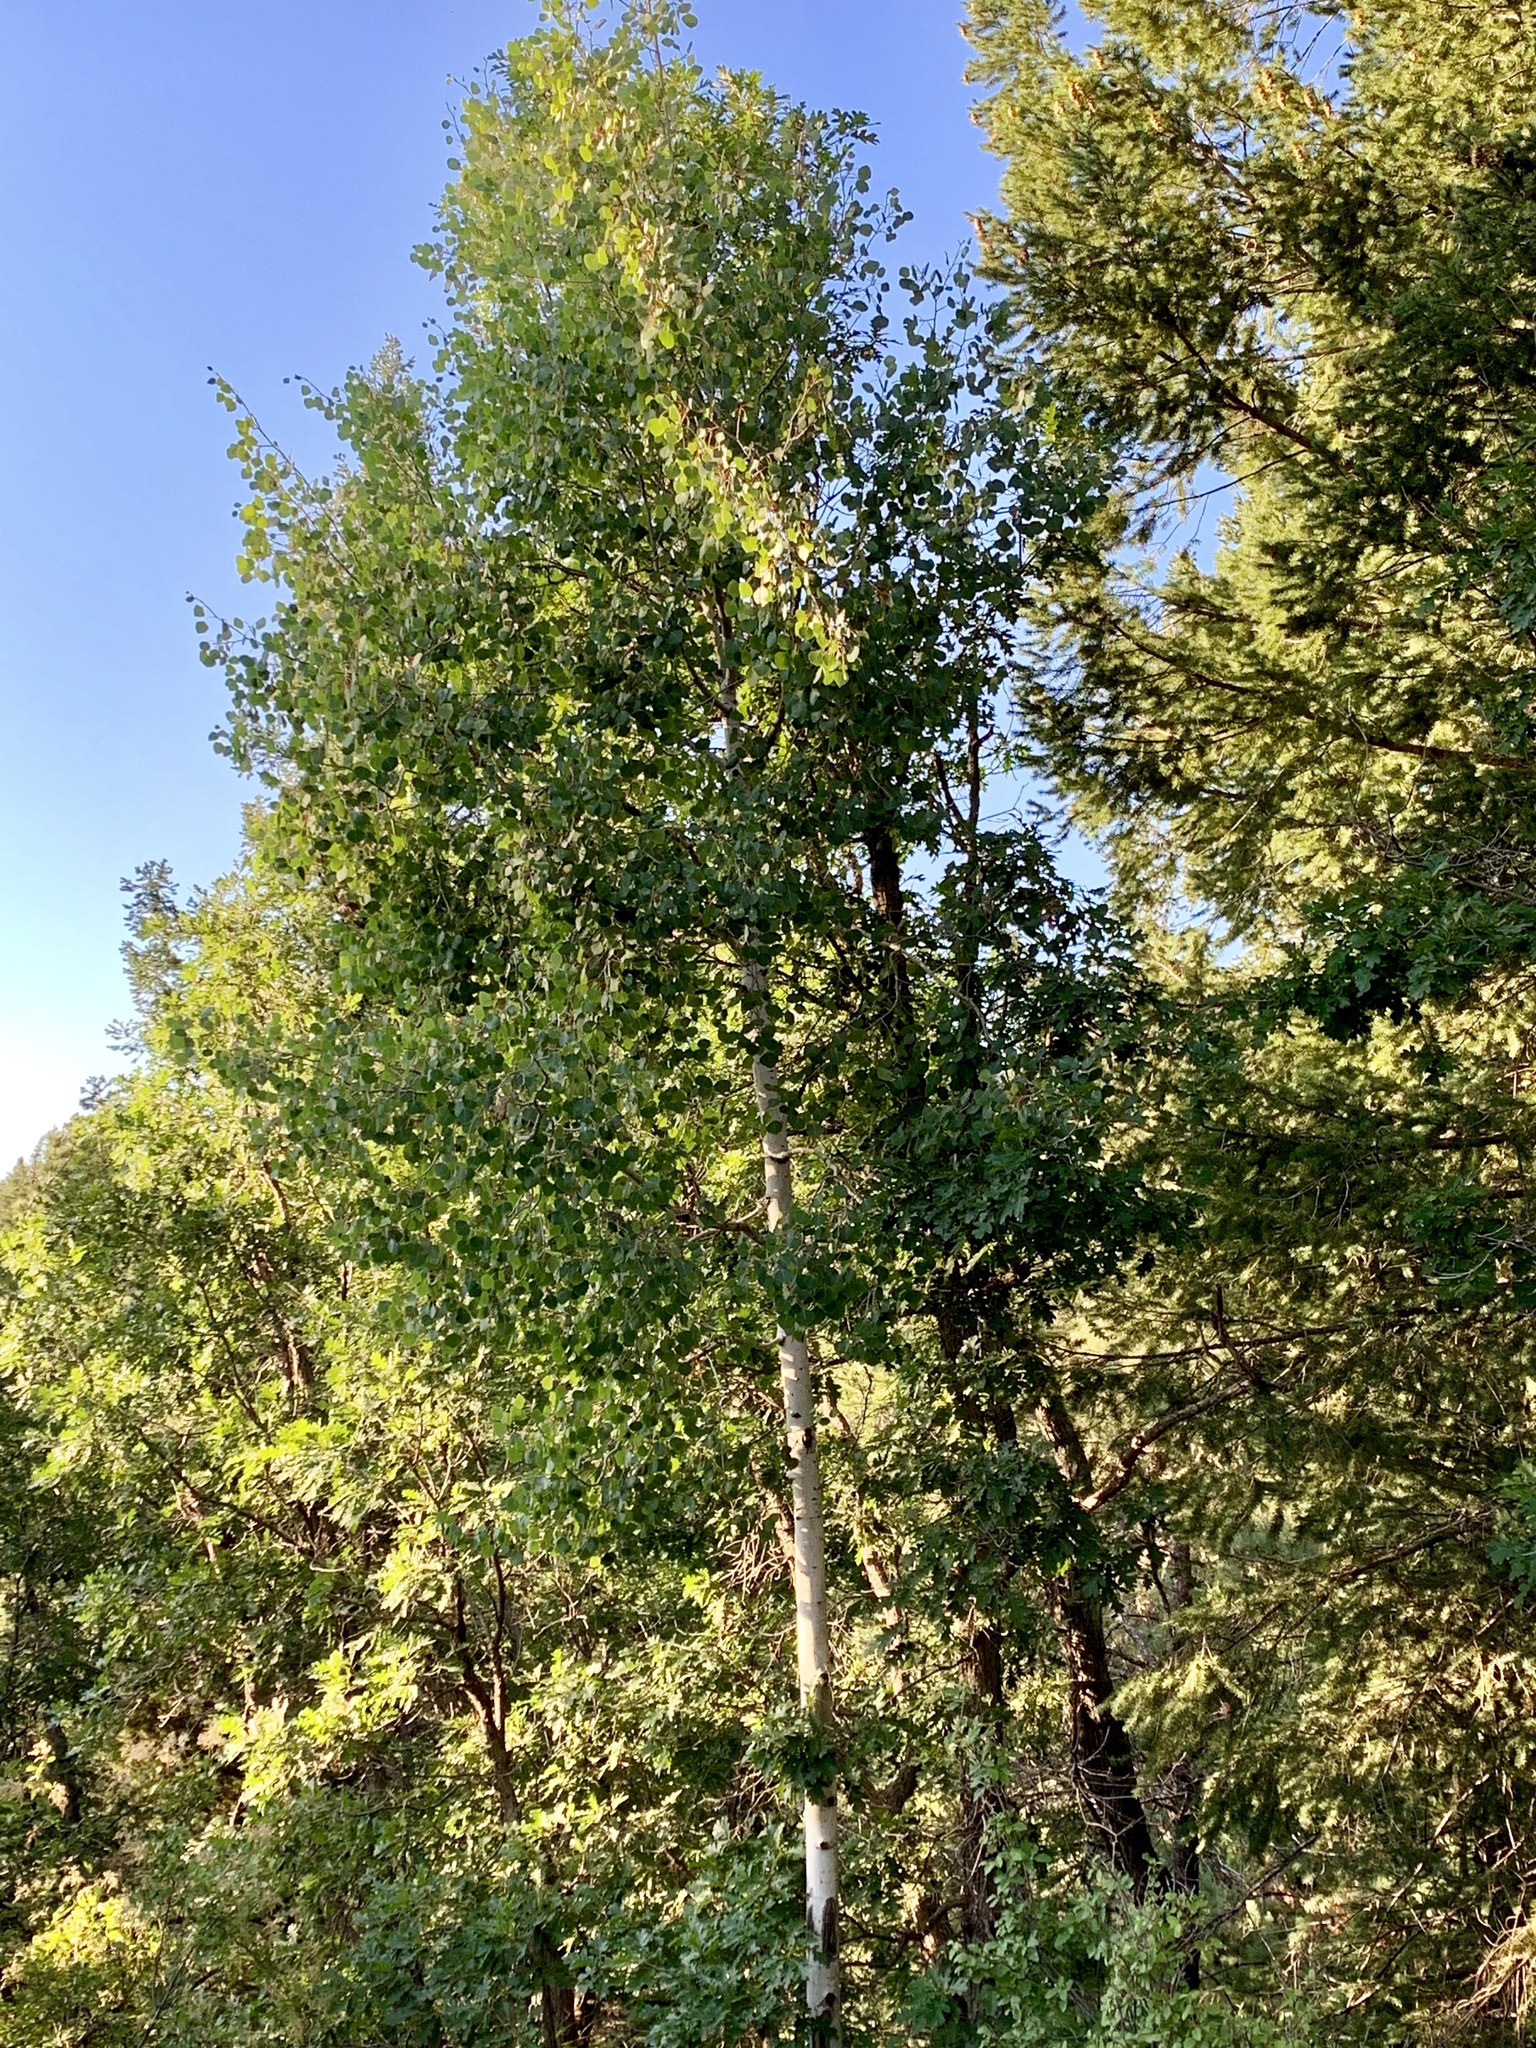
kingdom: Plantae
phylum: Tracheophyta
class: Magnoliopsida
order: Malpighiales
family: Salicaceae
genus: Populus
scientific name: Populus tremuloides
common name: Quaking aspen
